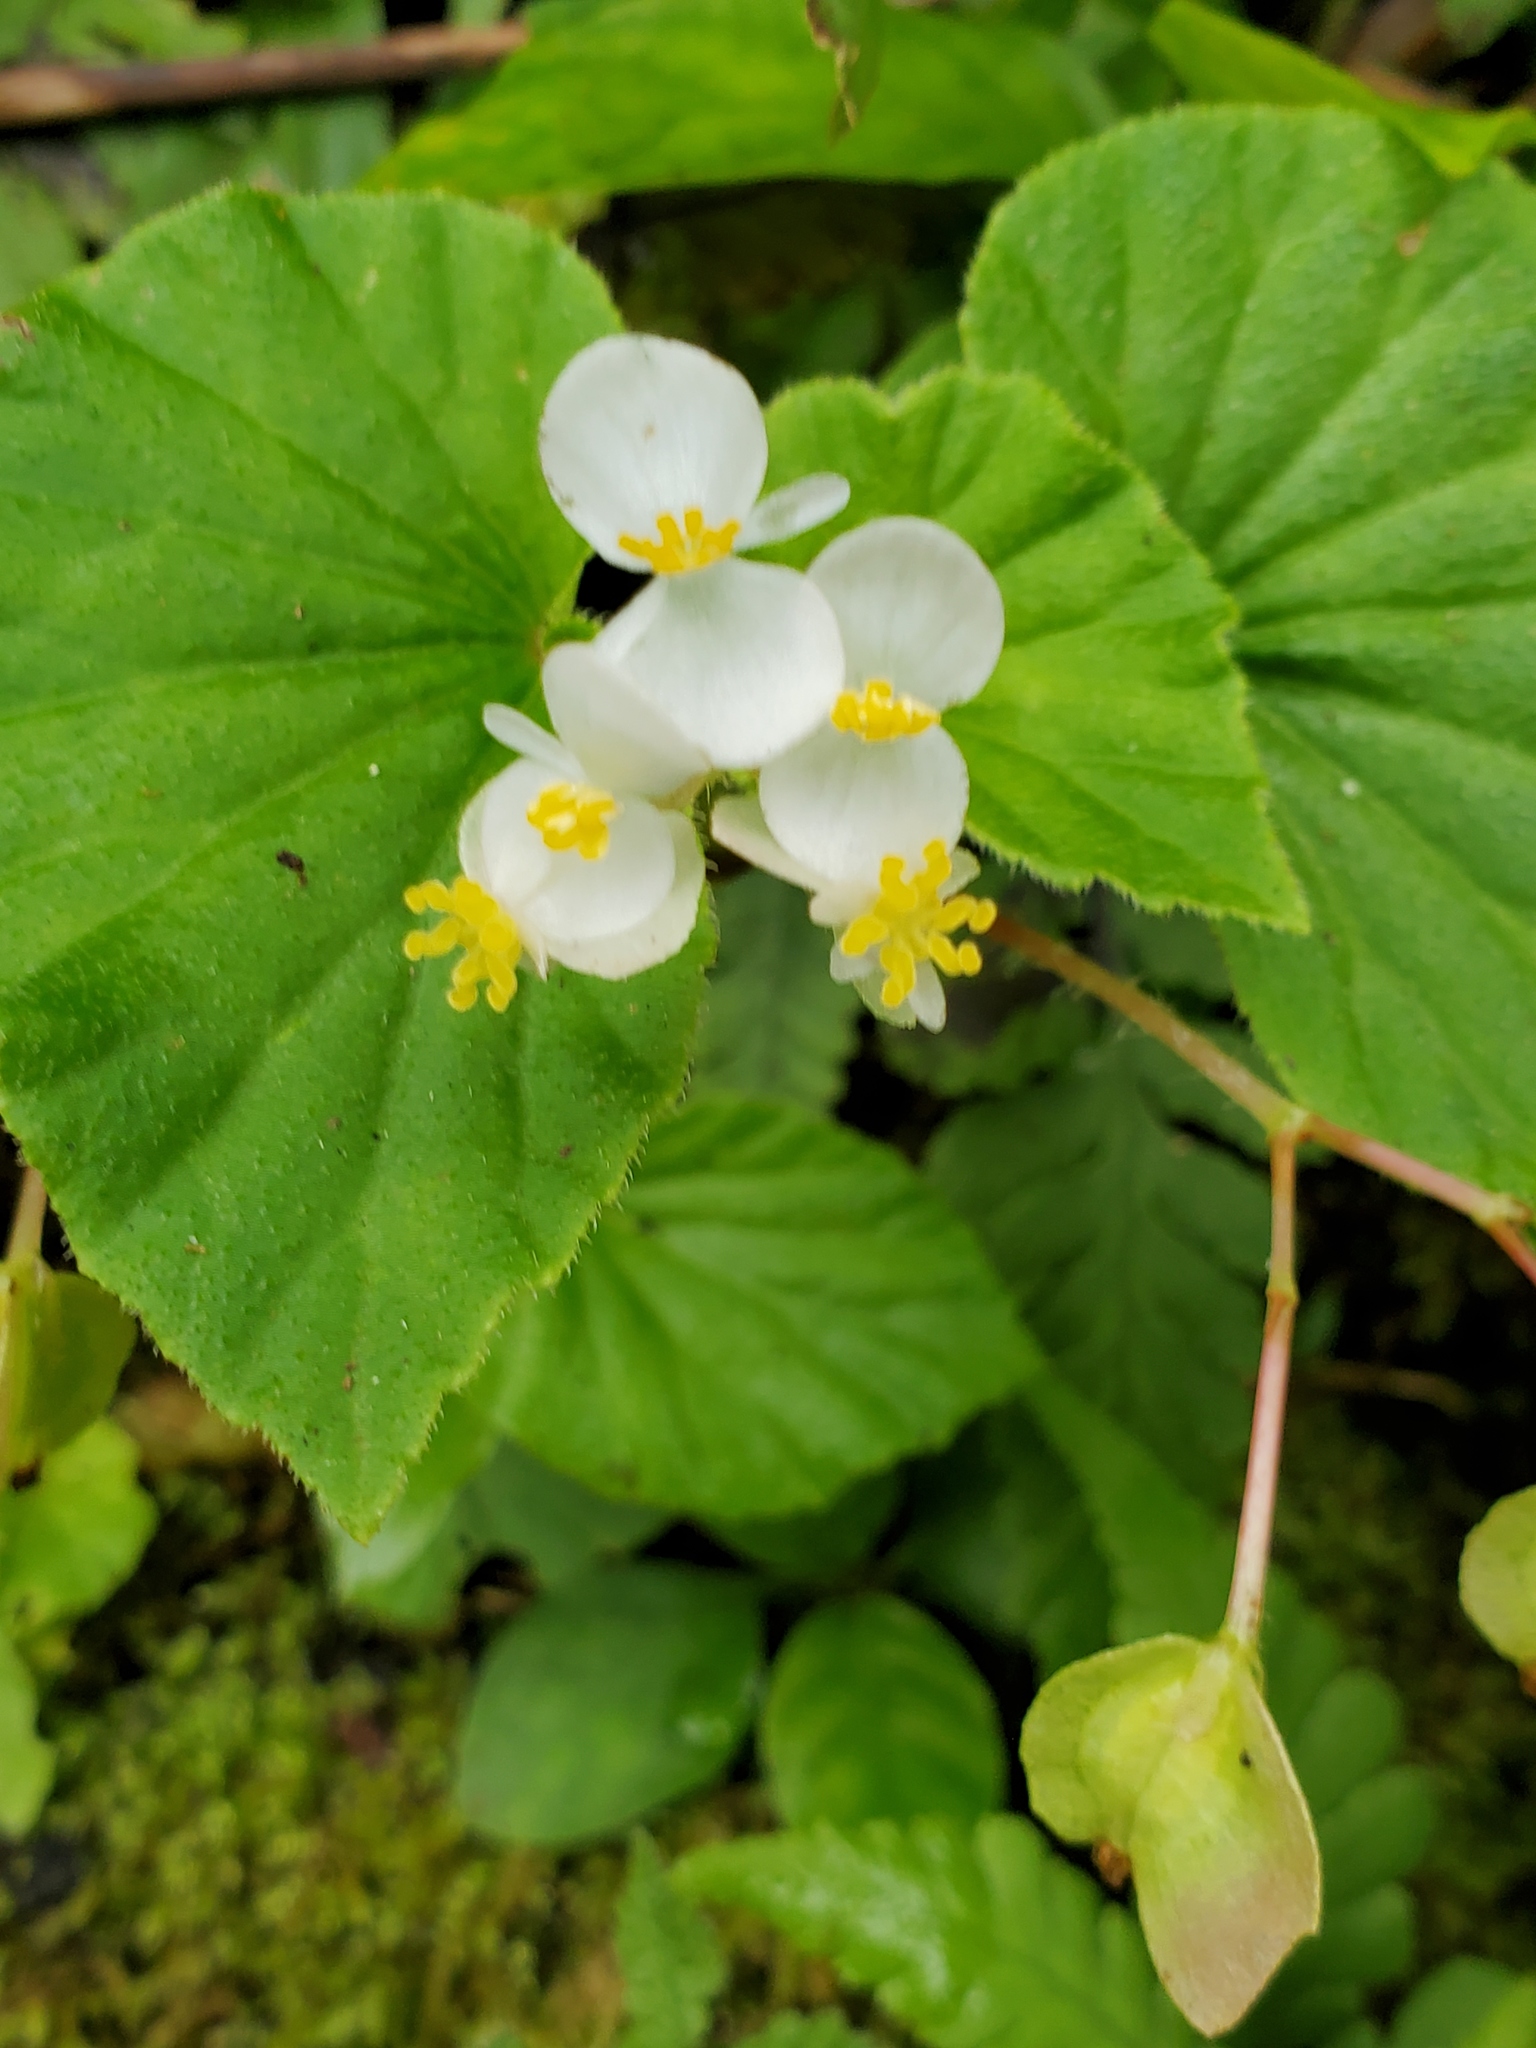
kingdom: Plantae
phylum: Tracheophyta
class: Magnoliopsida
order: Cucurbitales
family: Begoniaceae
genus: Begonia
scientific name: Begonia hirtella
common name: Brazilian begonia
